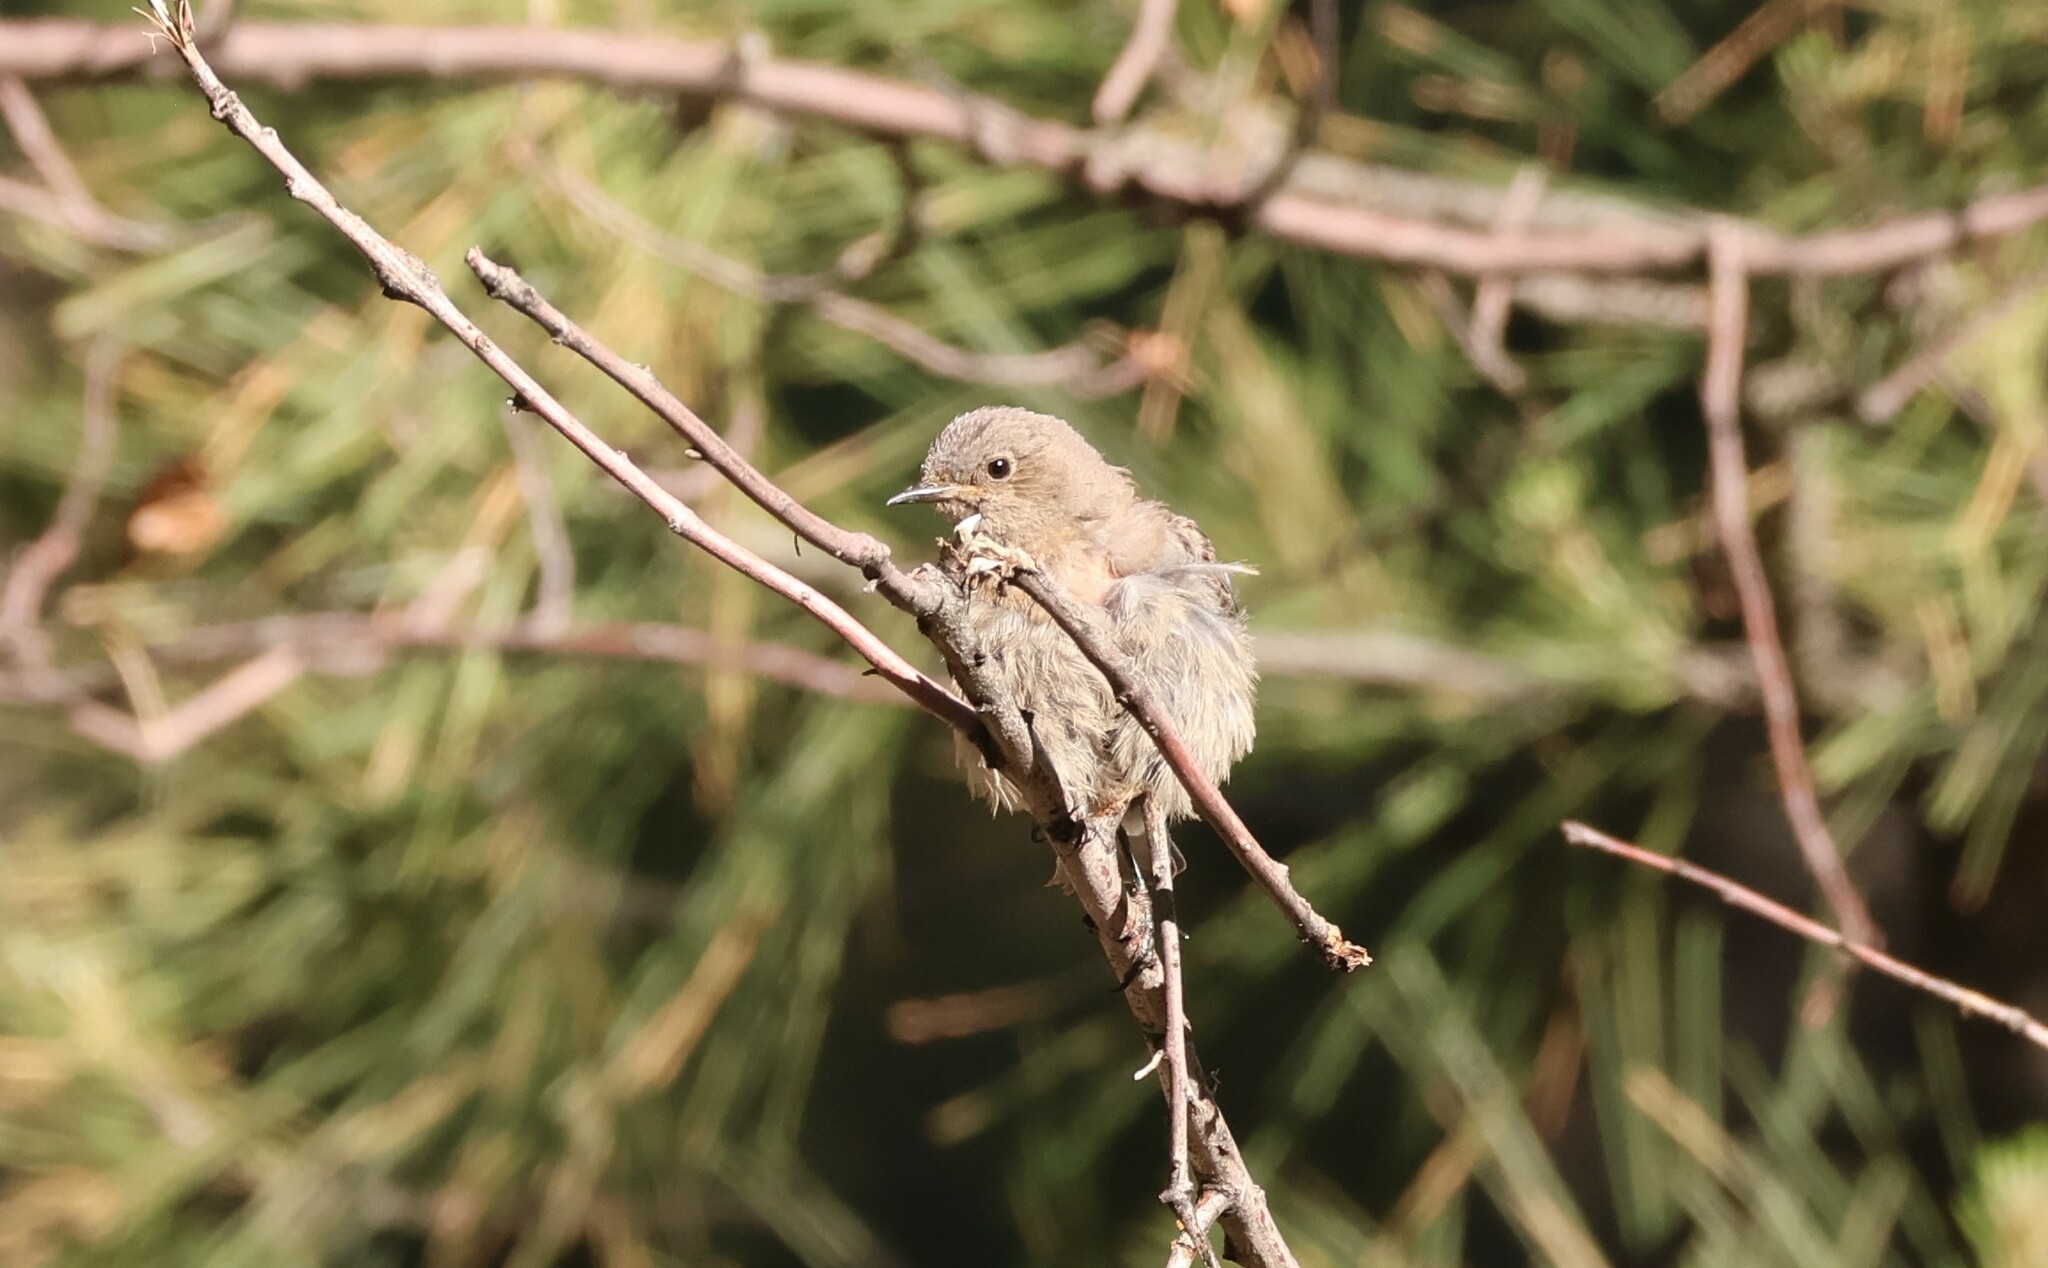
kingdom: Animalia
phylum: Chordata
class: Aves
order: Passeriformes
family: Turdidae
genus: Sialia
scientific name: Sialia mexicana
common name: Western bluebird
